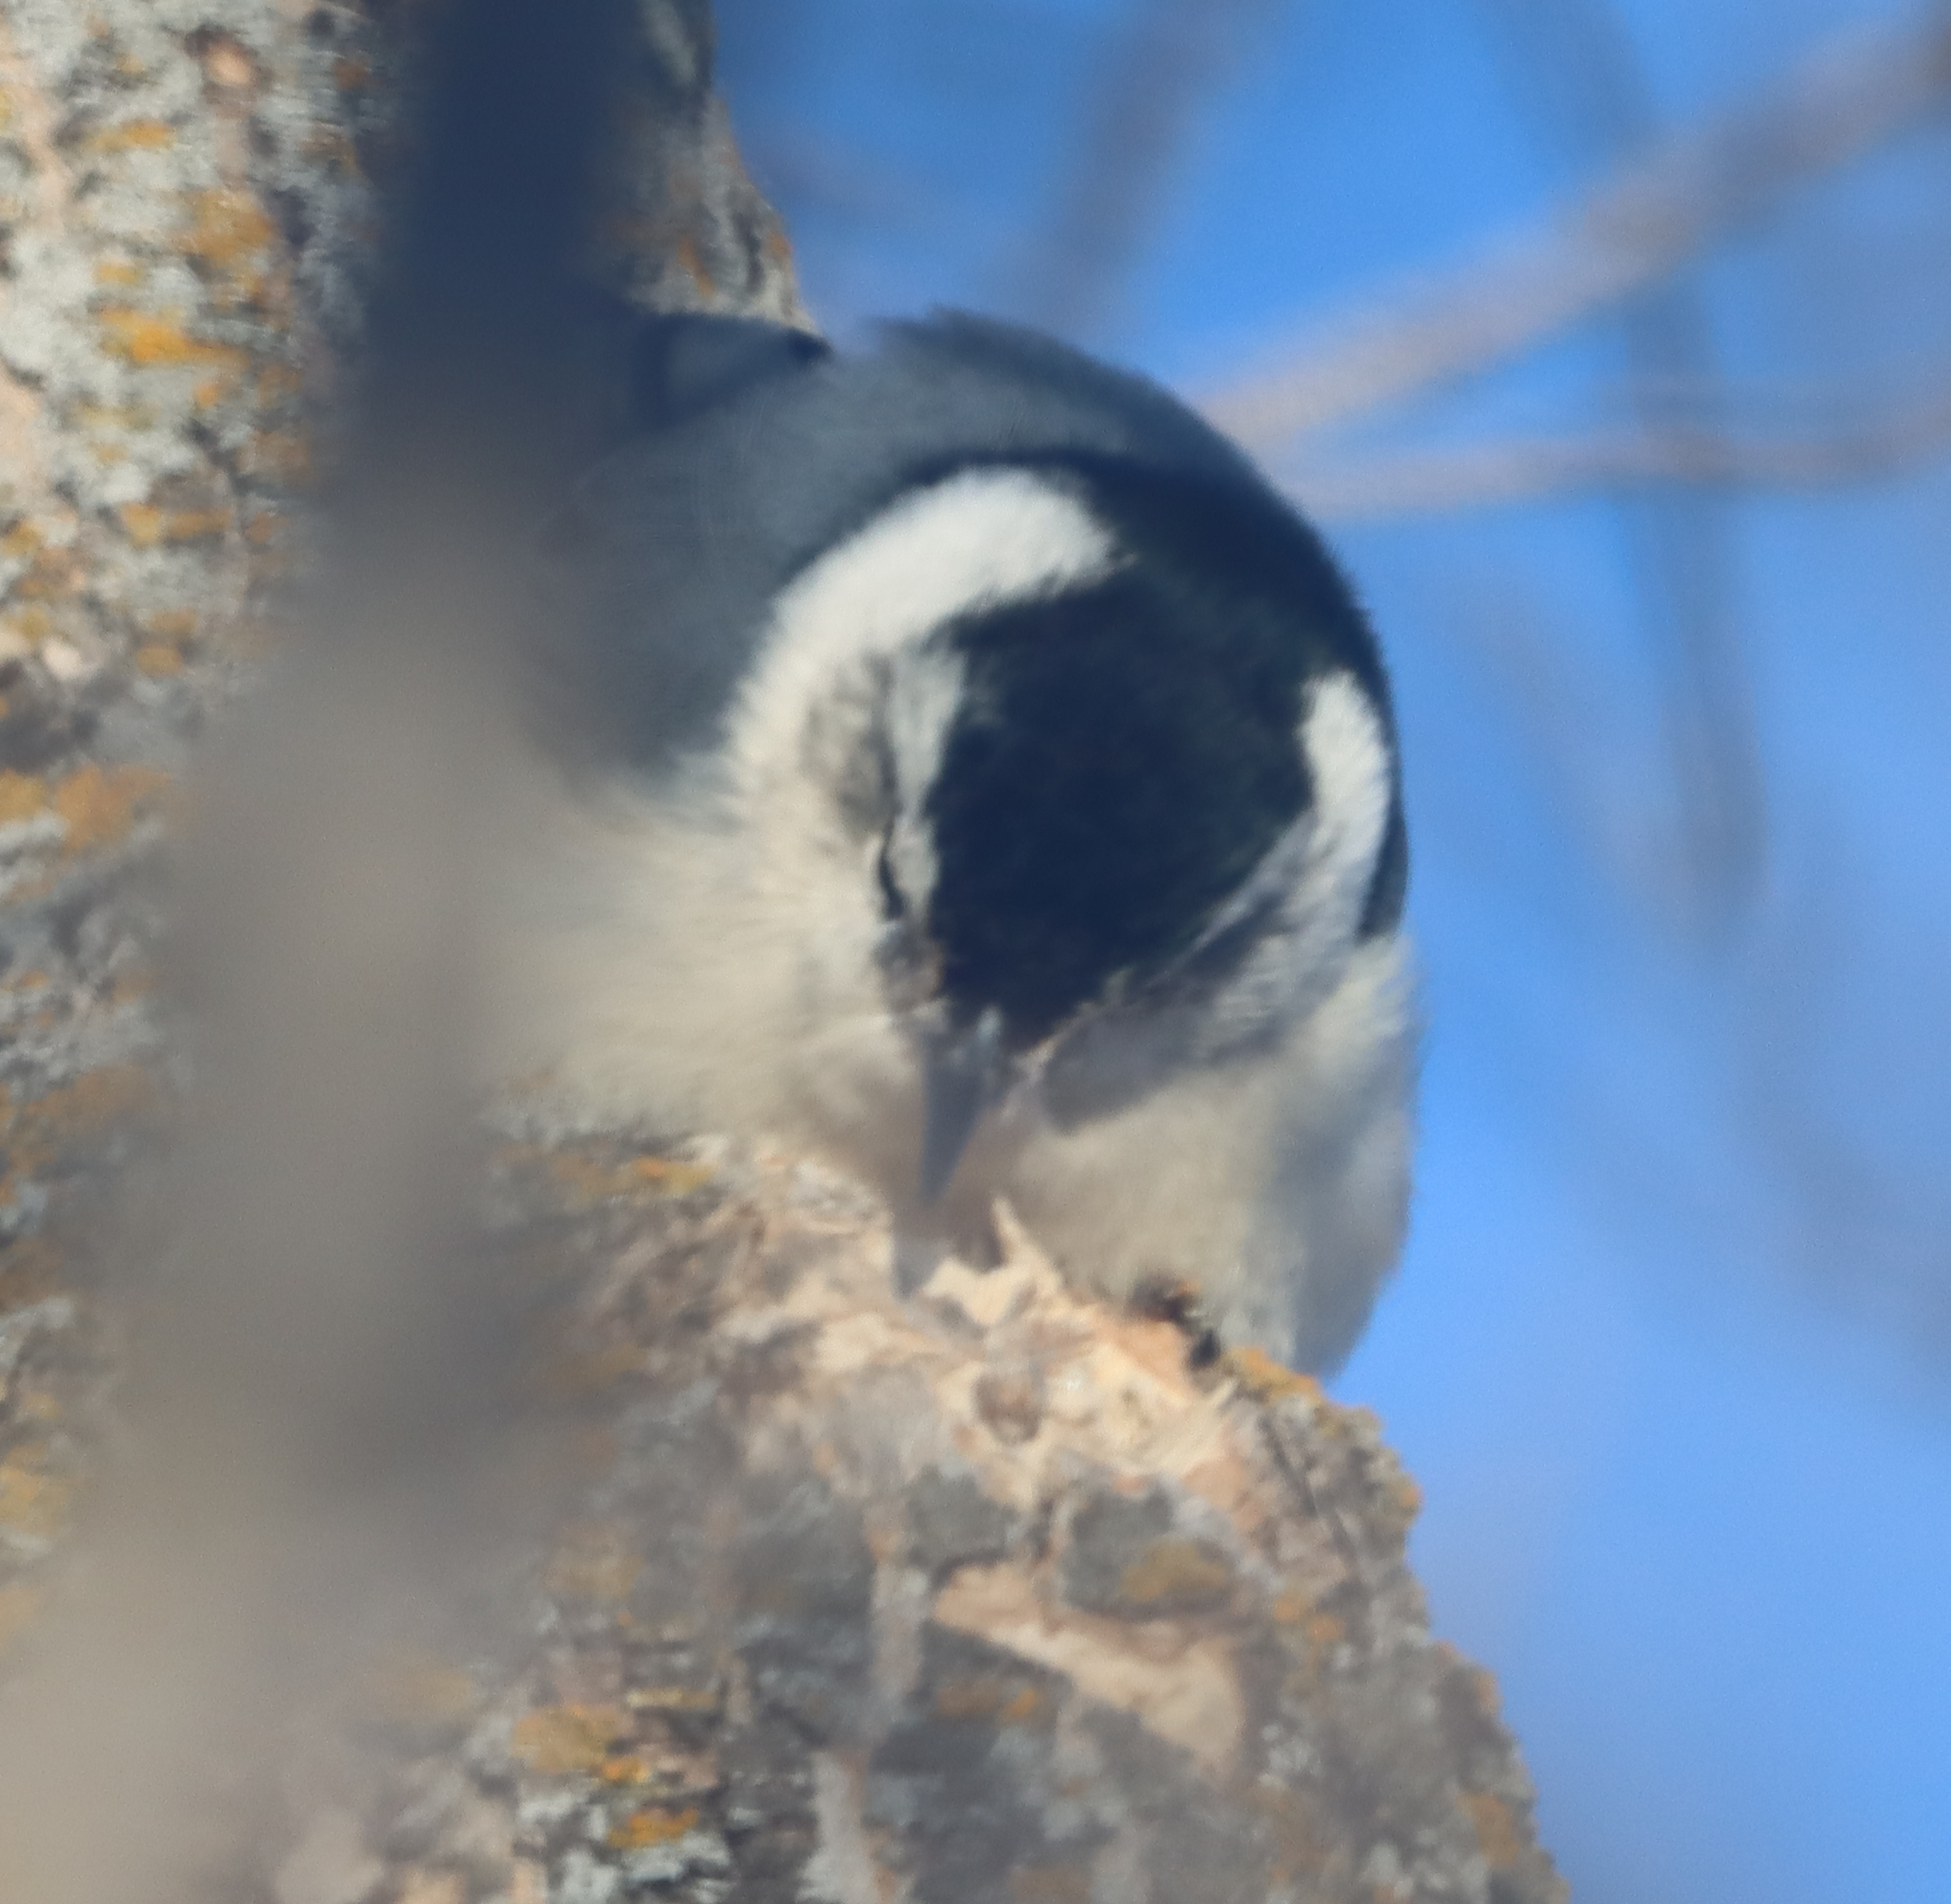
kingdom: Animalia
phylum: Chordata
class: Aves
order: Passeriformes
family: Sittidae
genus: Sitta
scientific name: Sitta carolinensis
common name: White-breasted nuthatch
